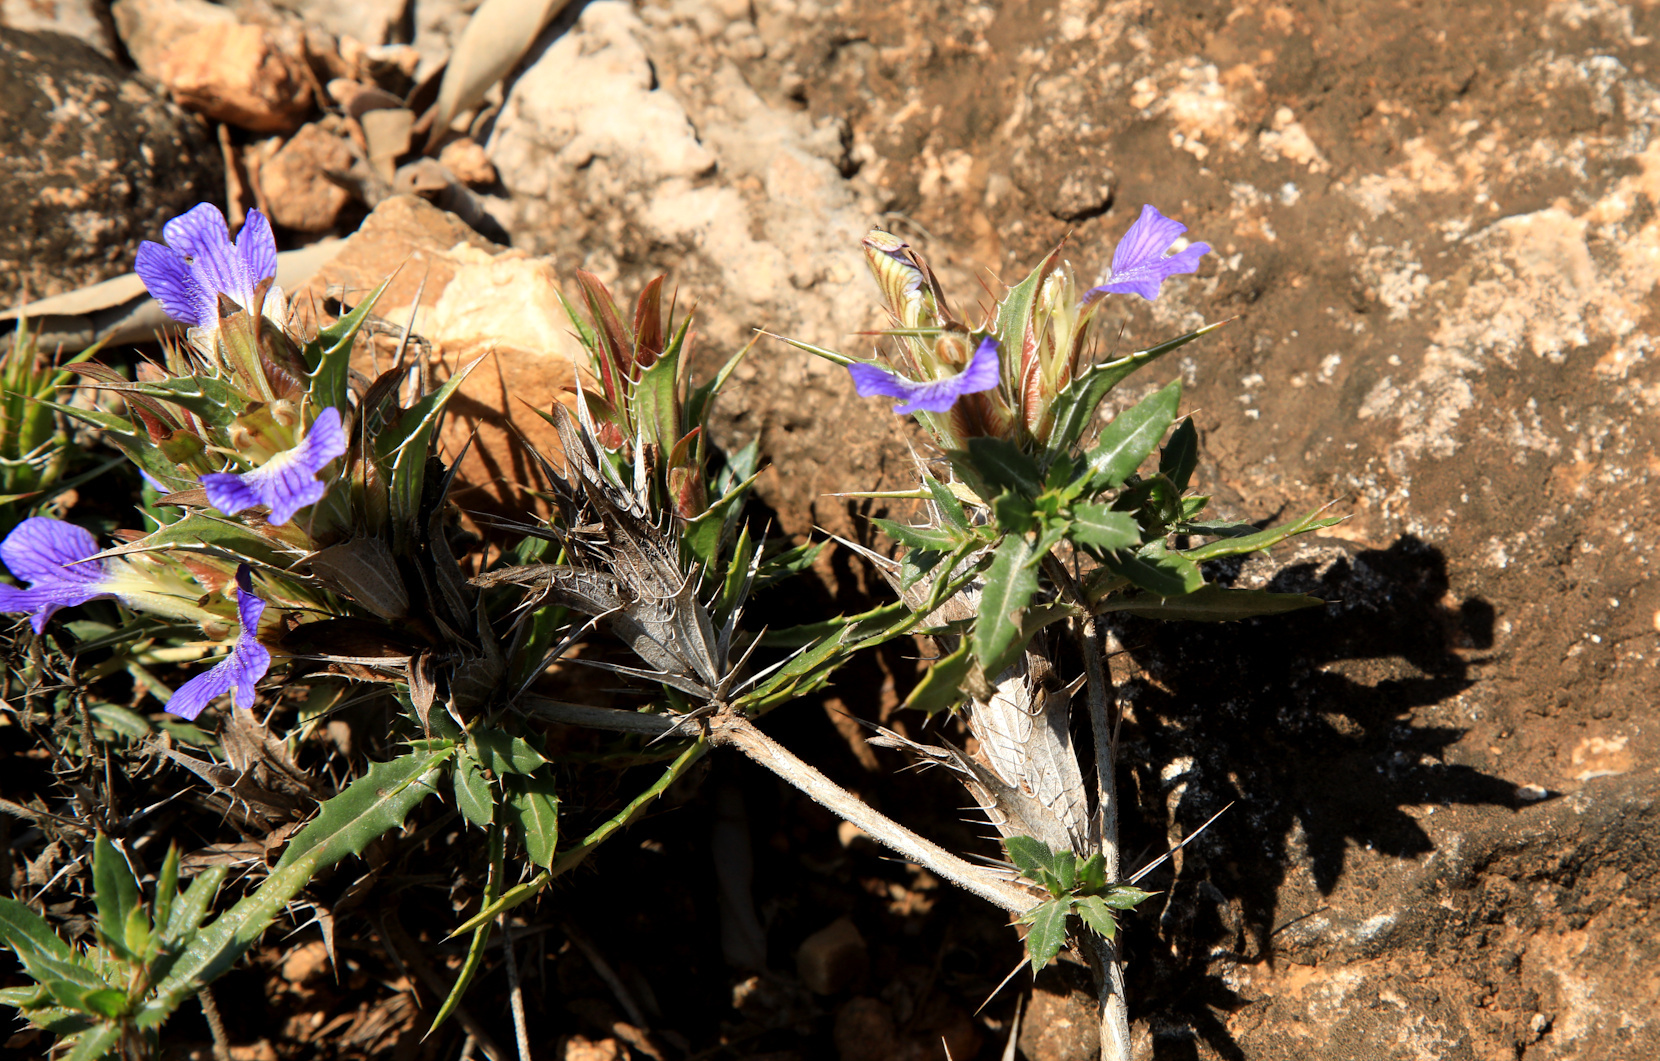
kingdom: Plantae
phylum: Tracheophyta
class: Magnoliopsida
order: Lamiales
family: Acanthaceae
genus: Blepharis
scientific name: Blepharis aspera
